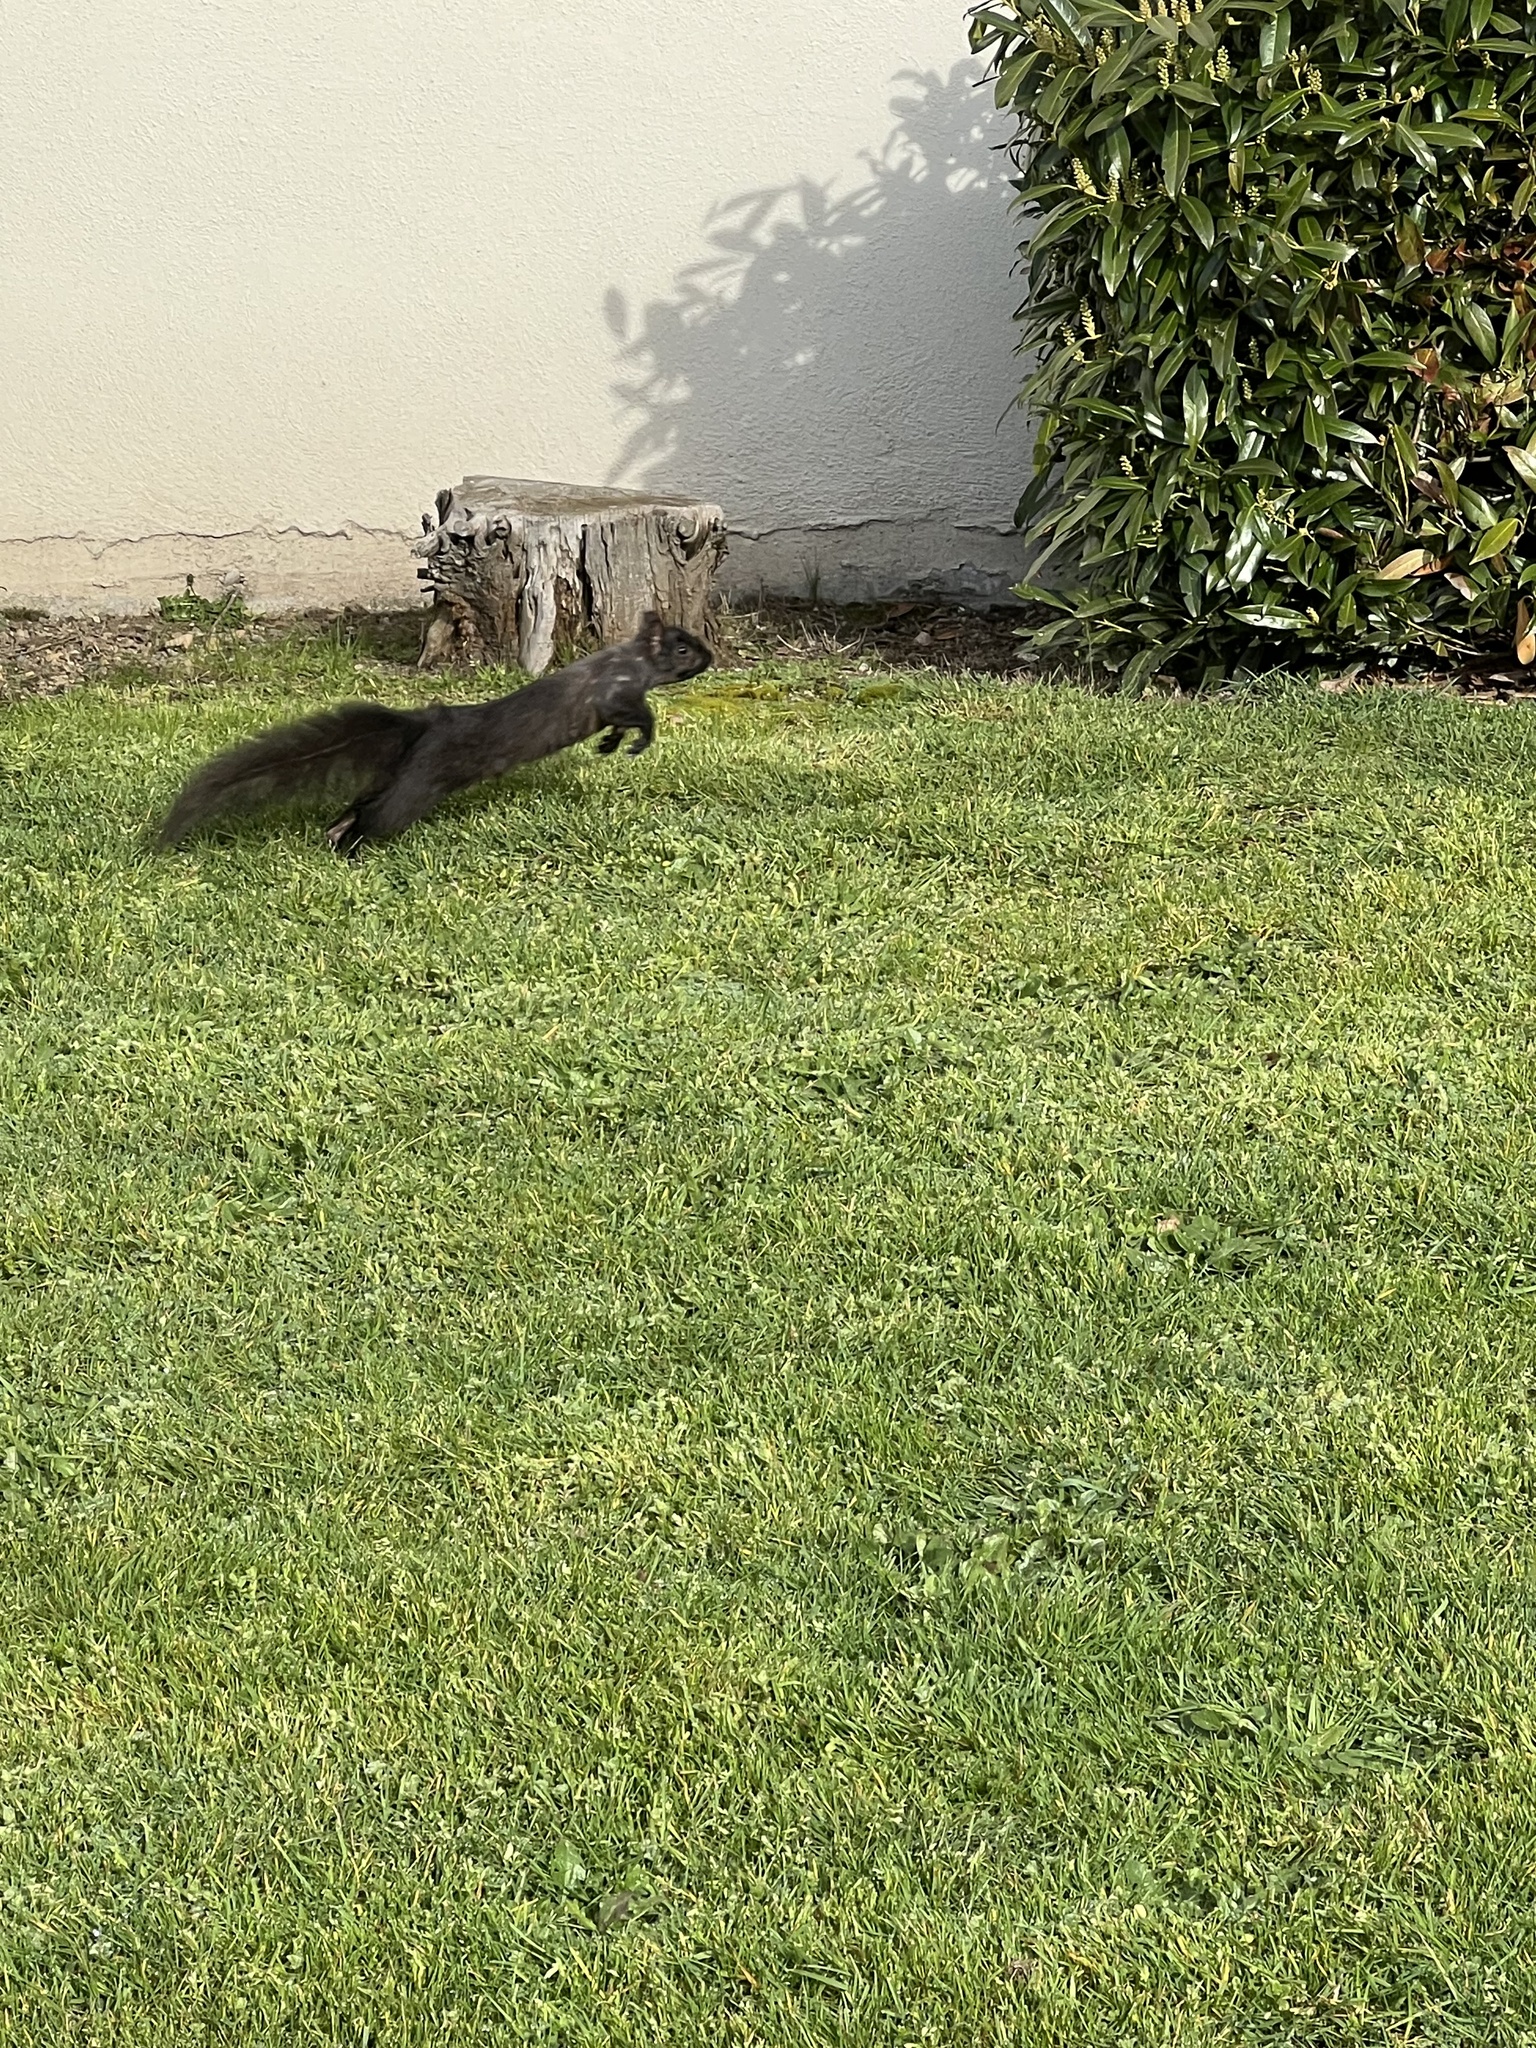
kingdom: Animalia
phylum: Chordata
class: Mammalia
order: Rodentia
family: Sciuridae
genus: Sciurus
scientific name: Sciurus carolinensis
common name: Eastern gray squirrel
